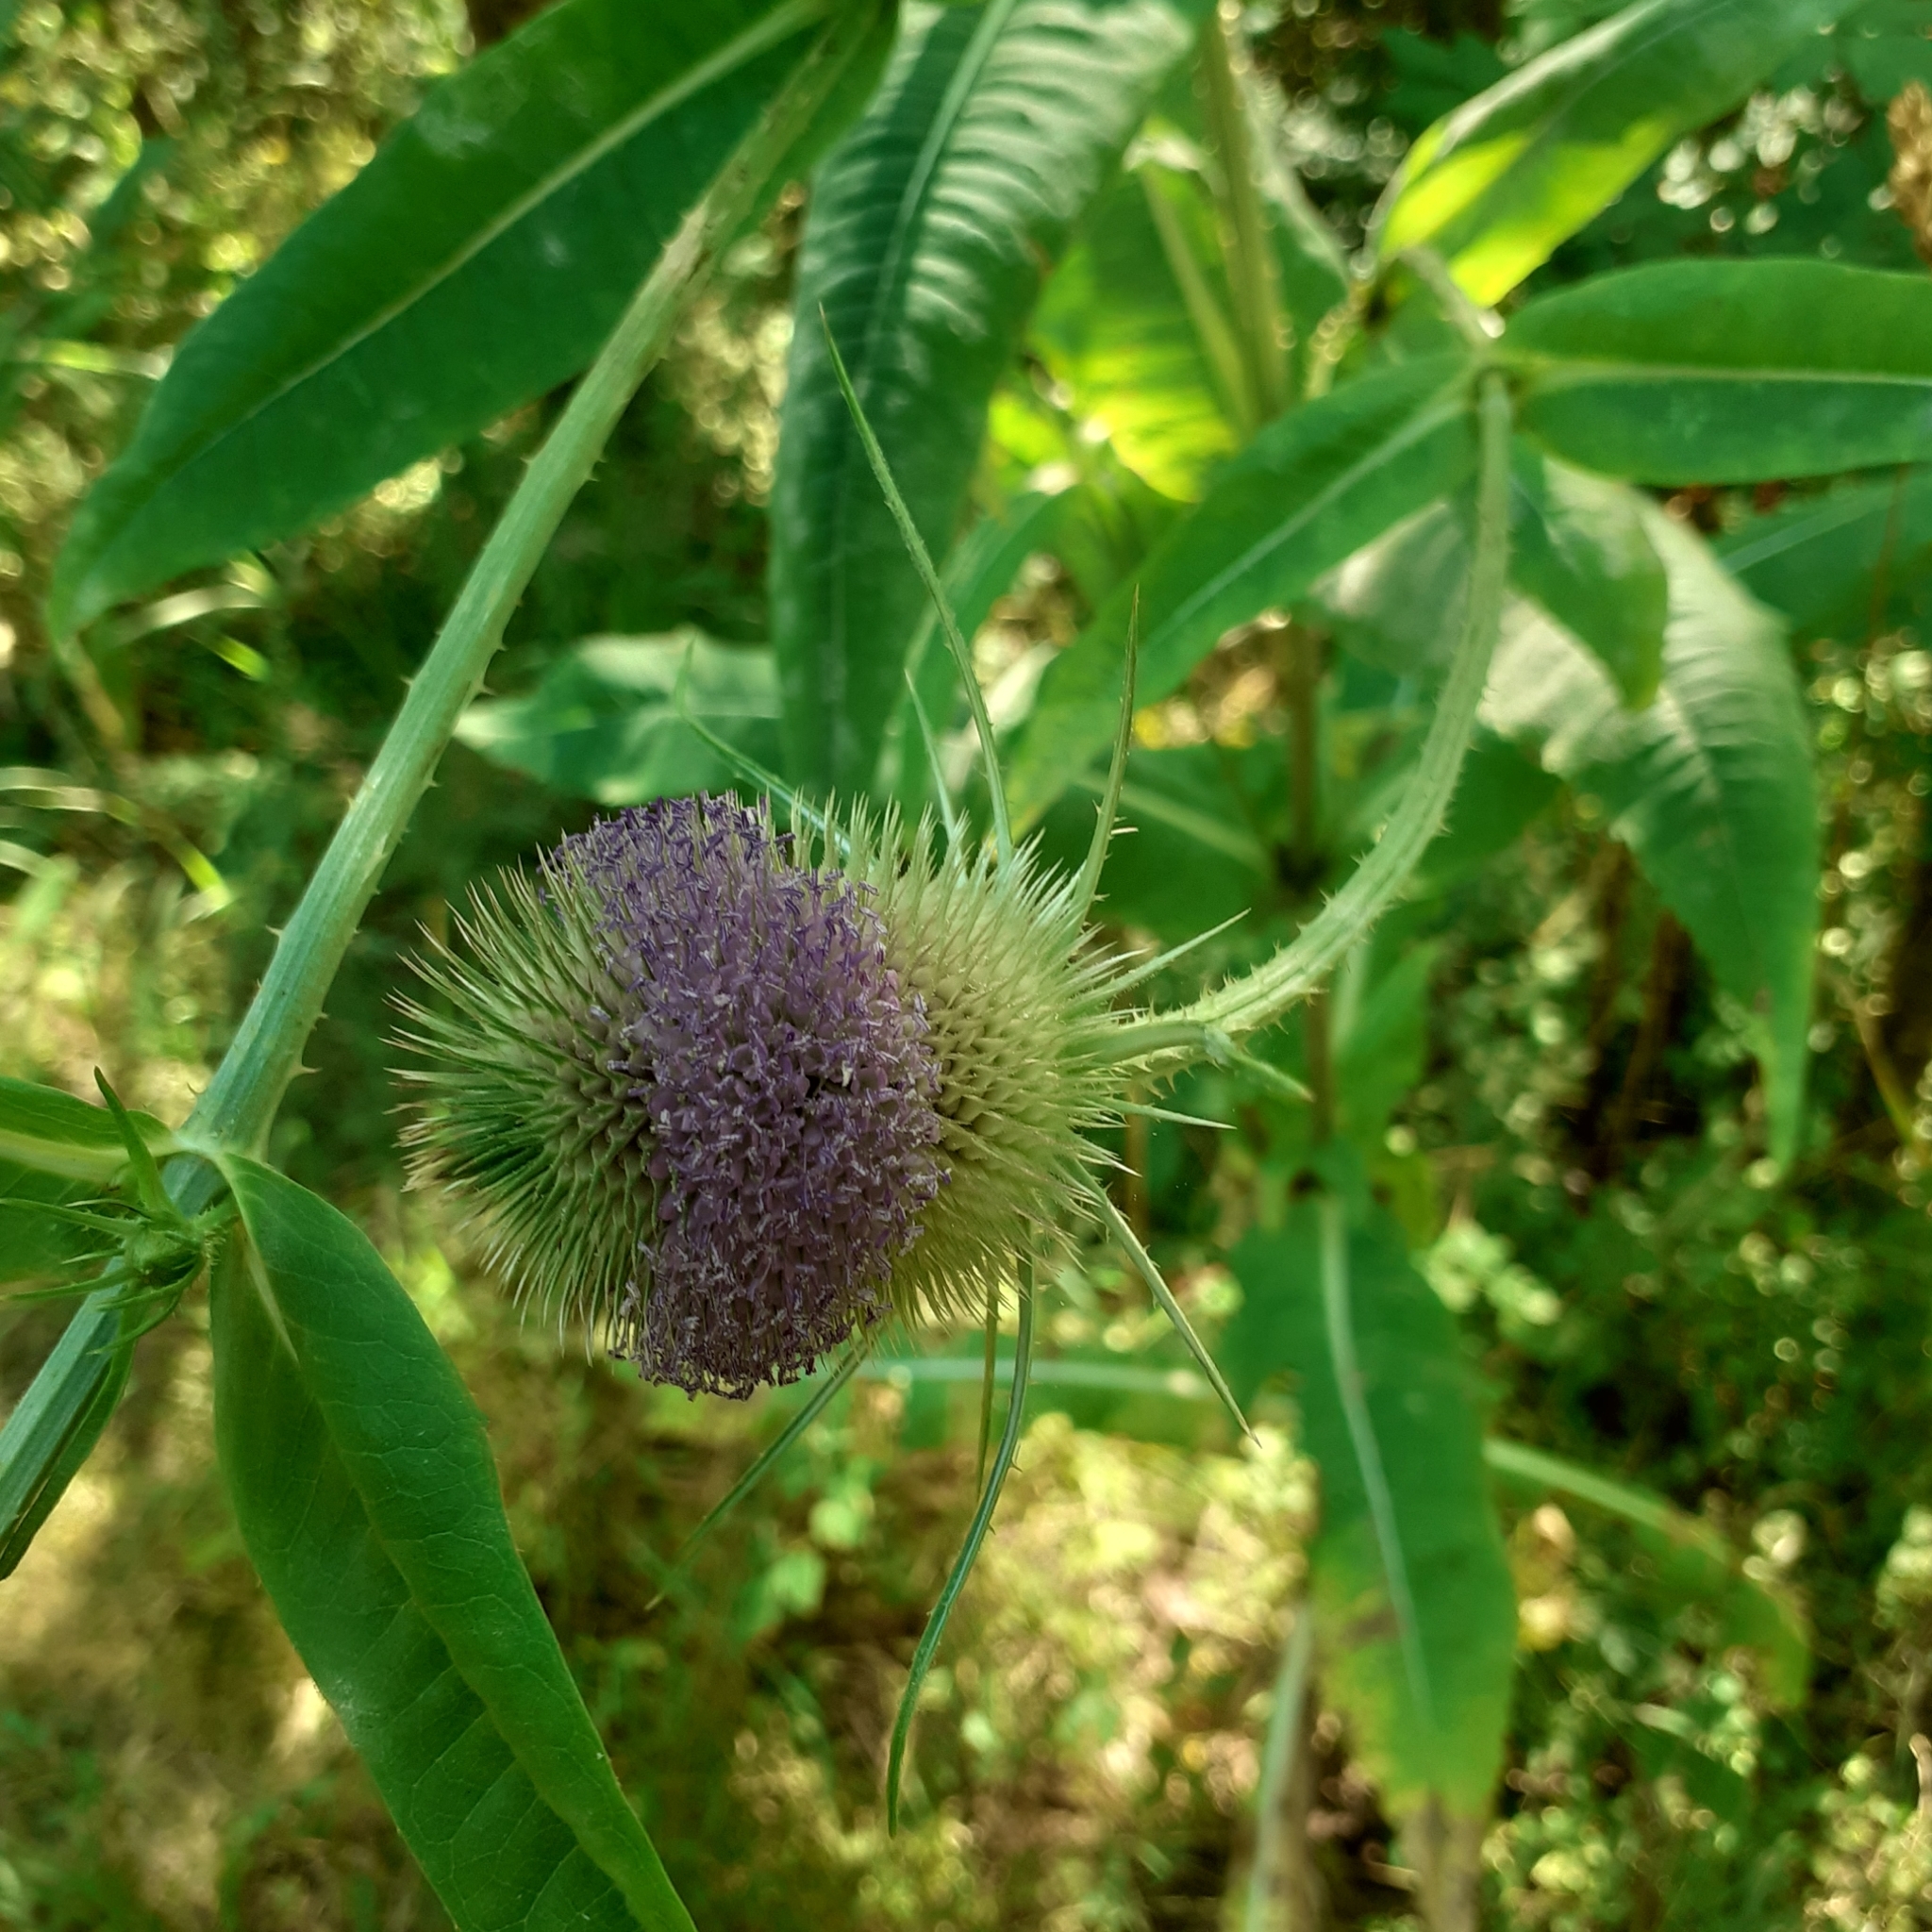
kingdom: Plantae
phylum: Tracheophyta
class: Magnoliopsida
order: Dipsacales
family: Caprifoliaceae
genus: Dipsacus
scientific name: Dipsacus fullonum
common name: Teasel
